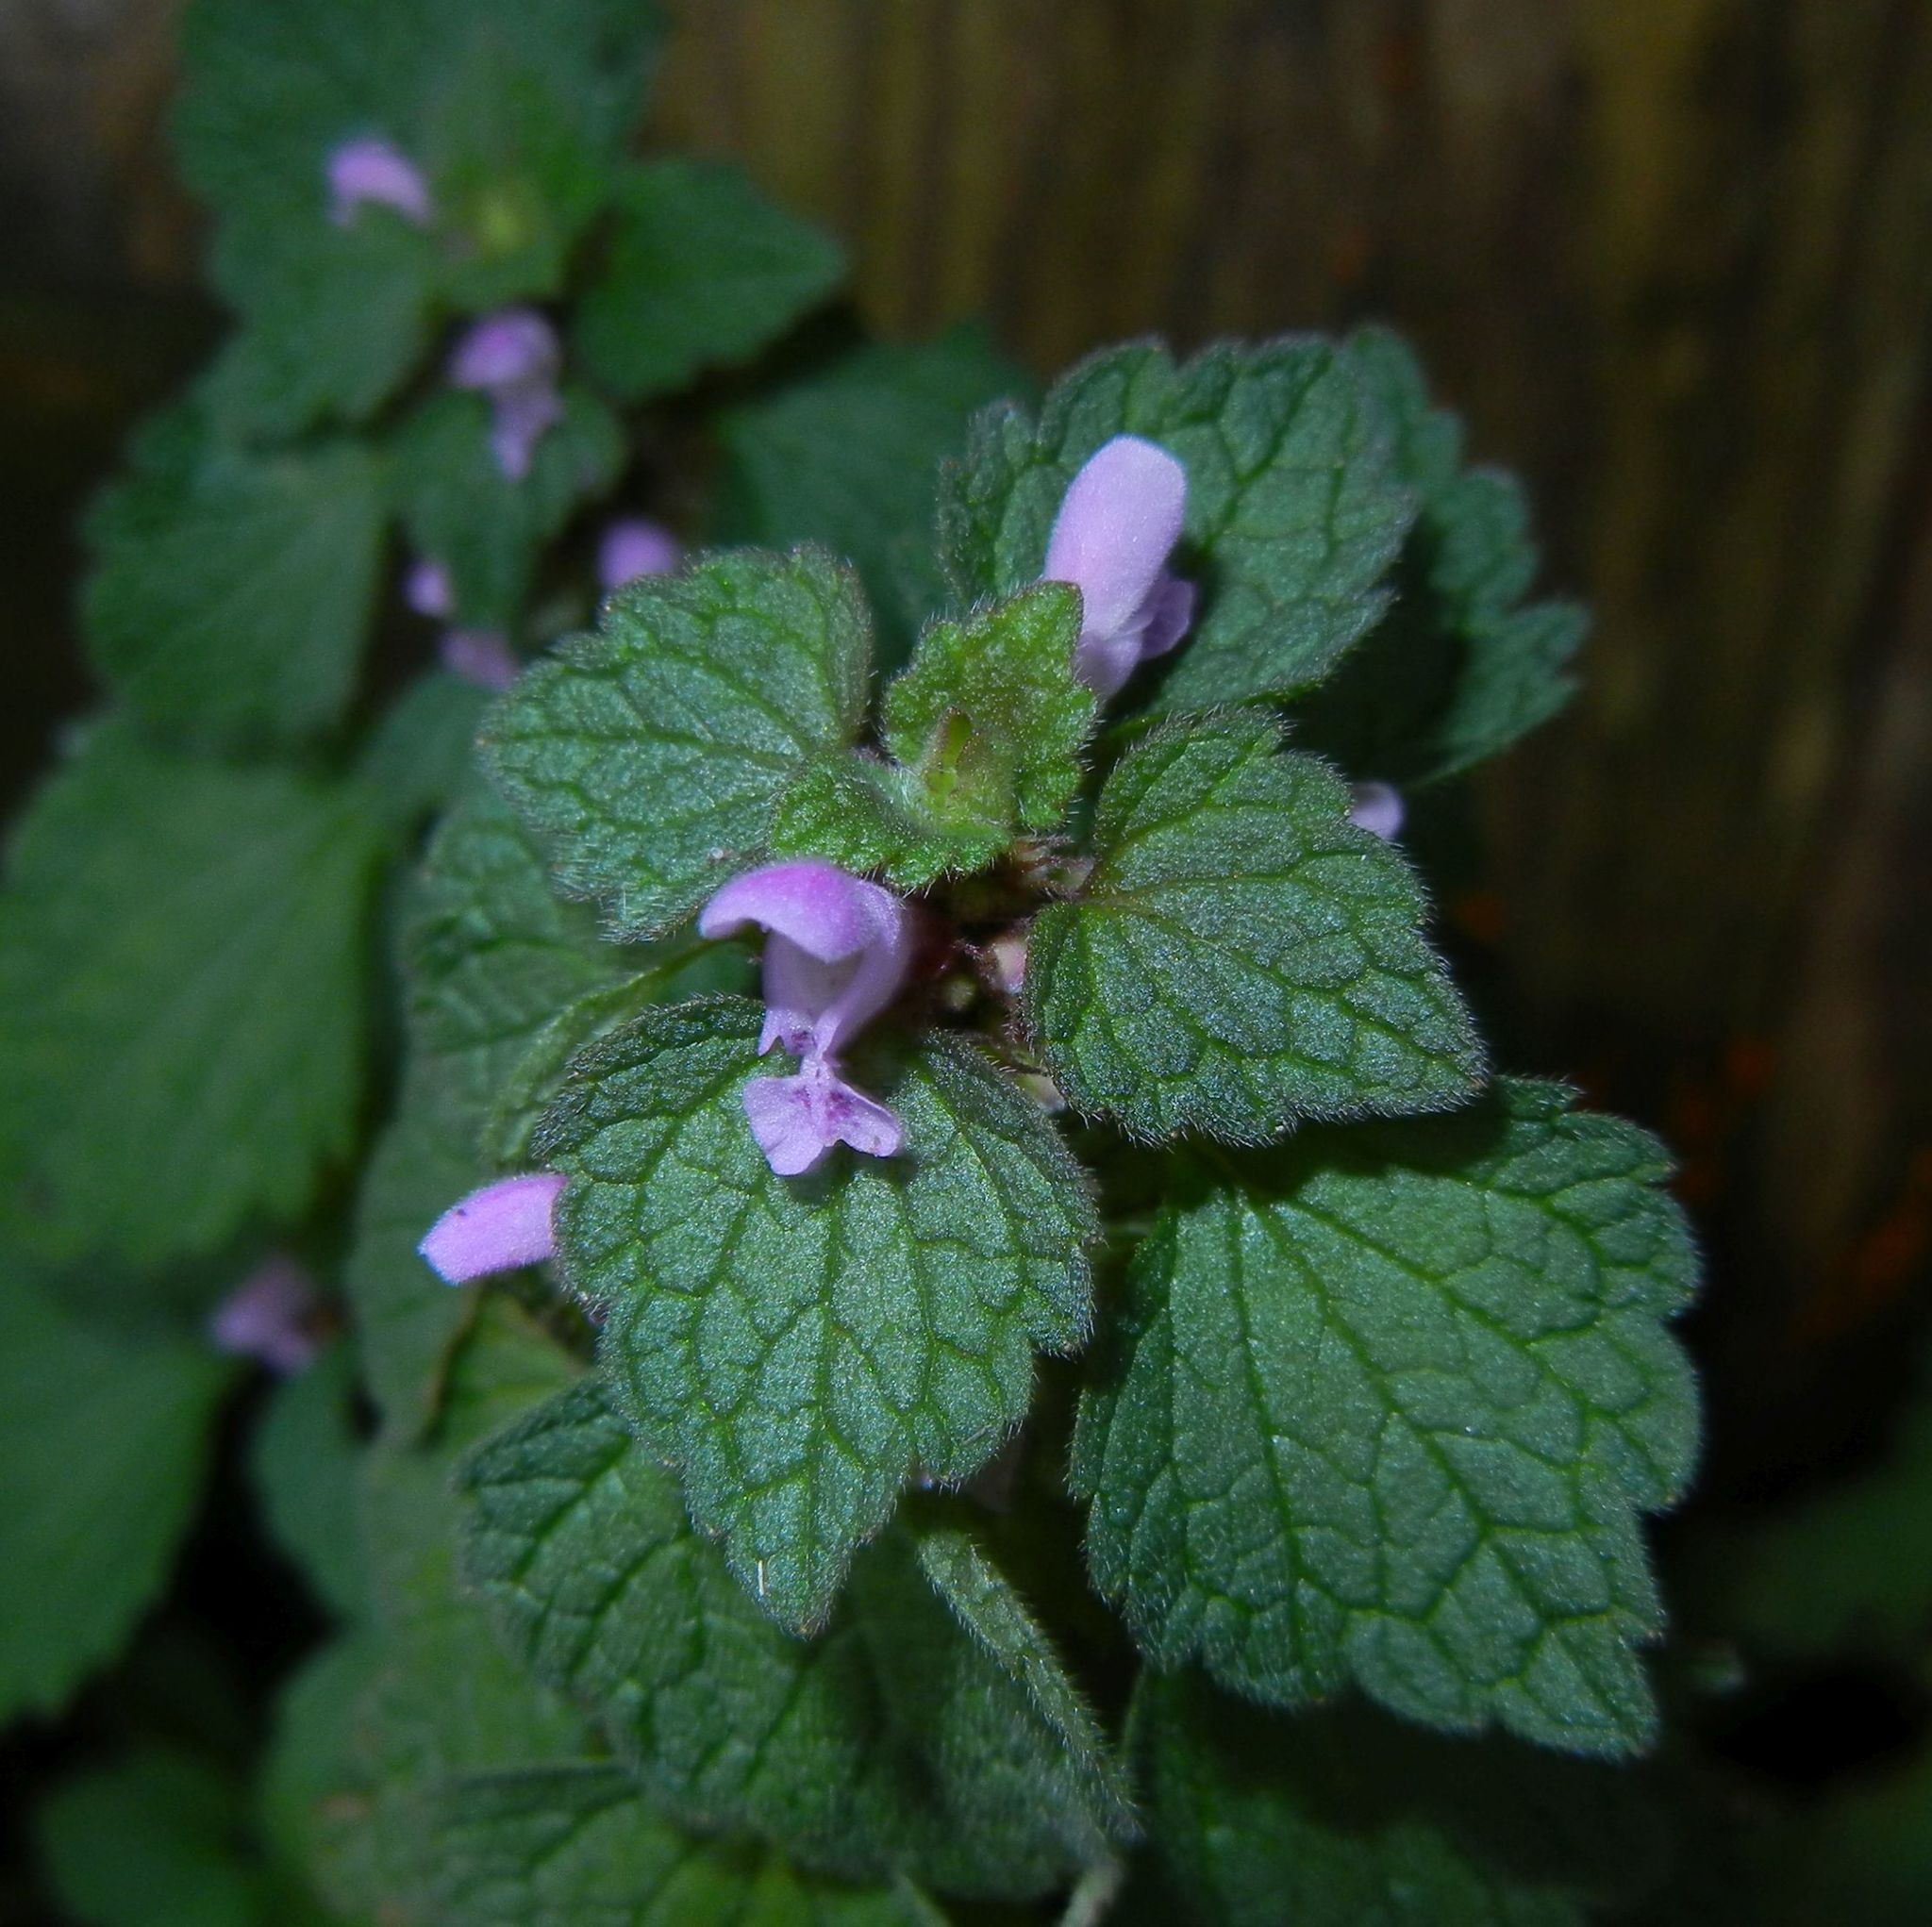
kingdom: Plantae
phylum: Tracheophyta
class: Magnoliopsida
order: Lamiales
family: Lamiaceae
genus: Lamium
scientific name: Lamium purpureum
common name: Red dead-nettle
